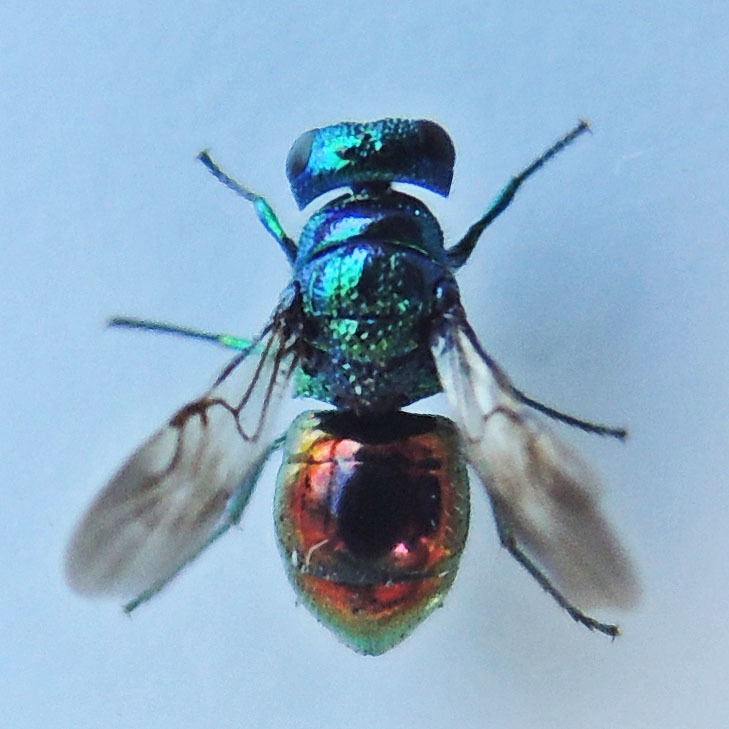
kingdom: Animalia
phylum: Arthropoda
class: Insecta
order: Hymenoptera
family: Chrysididae
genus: Pseudomalus
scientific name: Pseudomalus auratus
